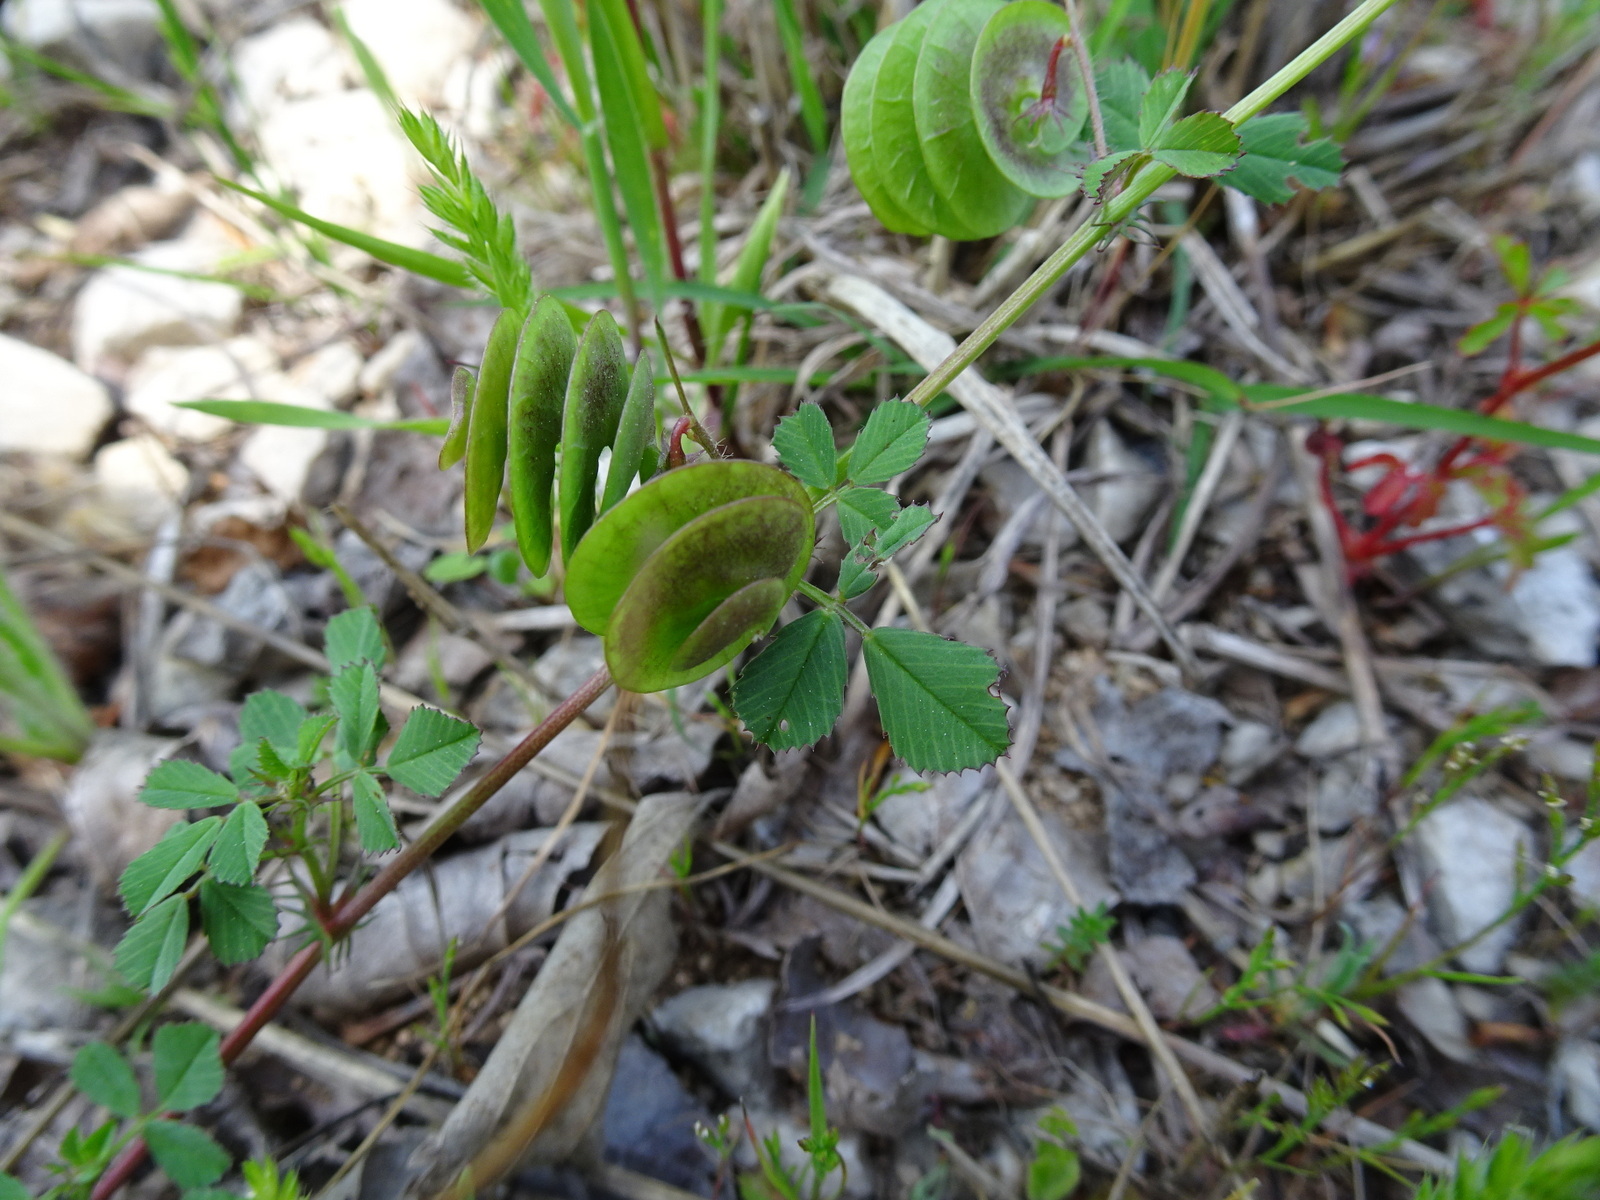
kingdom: Plantae
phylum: Tracheophyta
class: Magnoliopsida
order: Fabales
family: Fabaceae
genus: Medicago
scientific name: Medicago orbicularis
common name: Button medick
